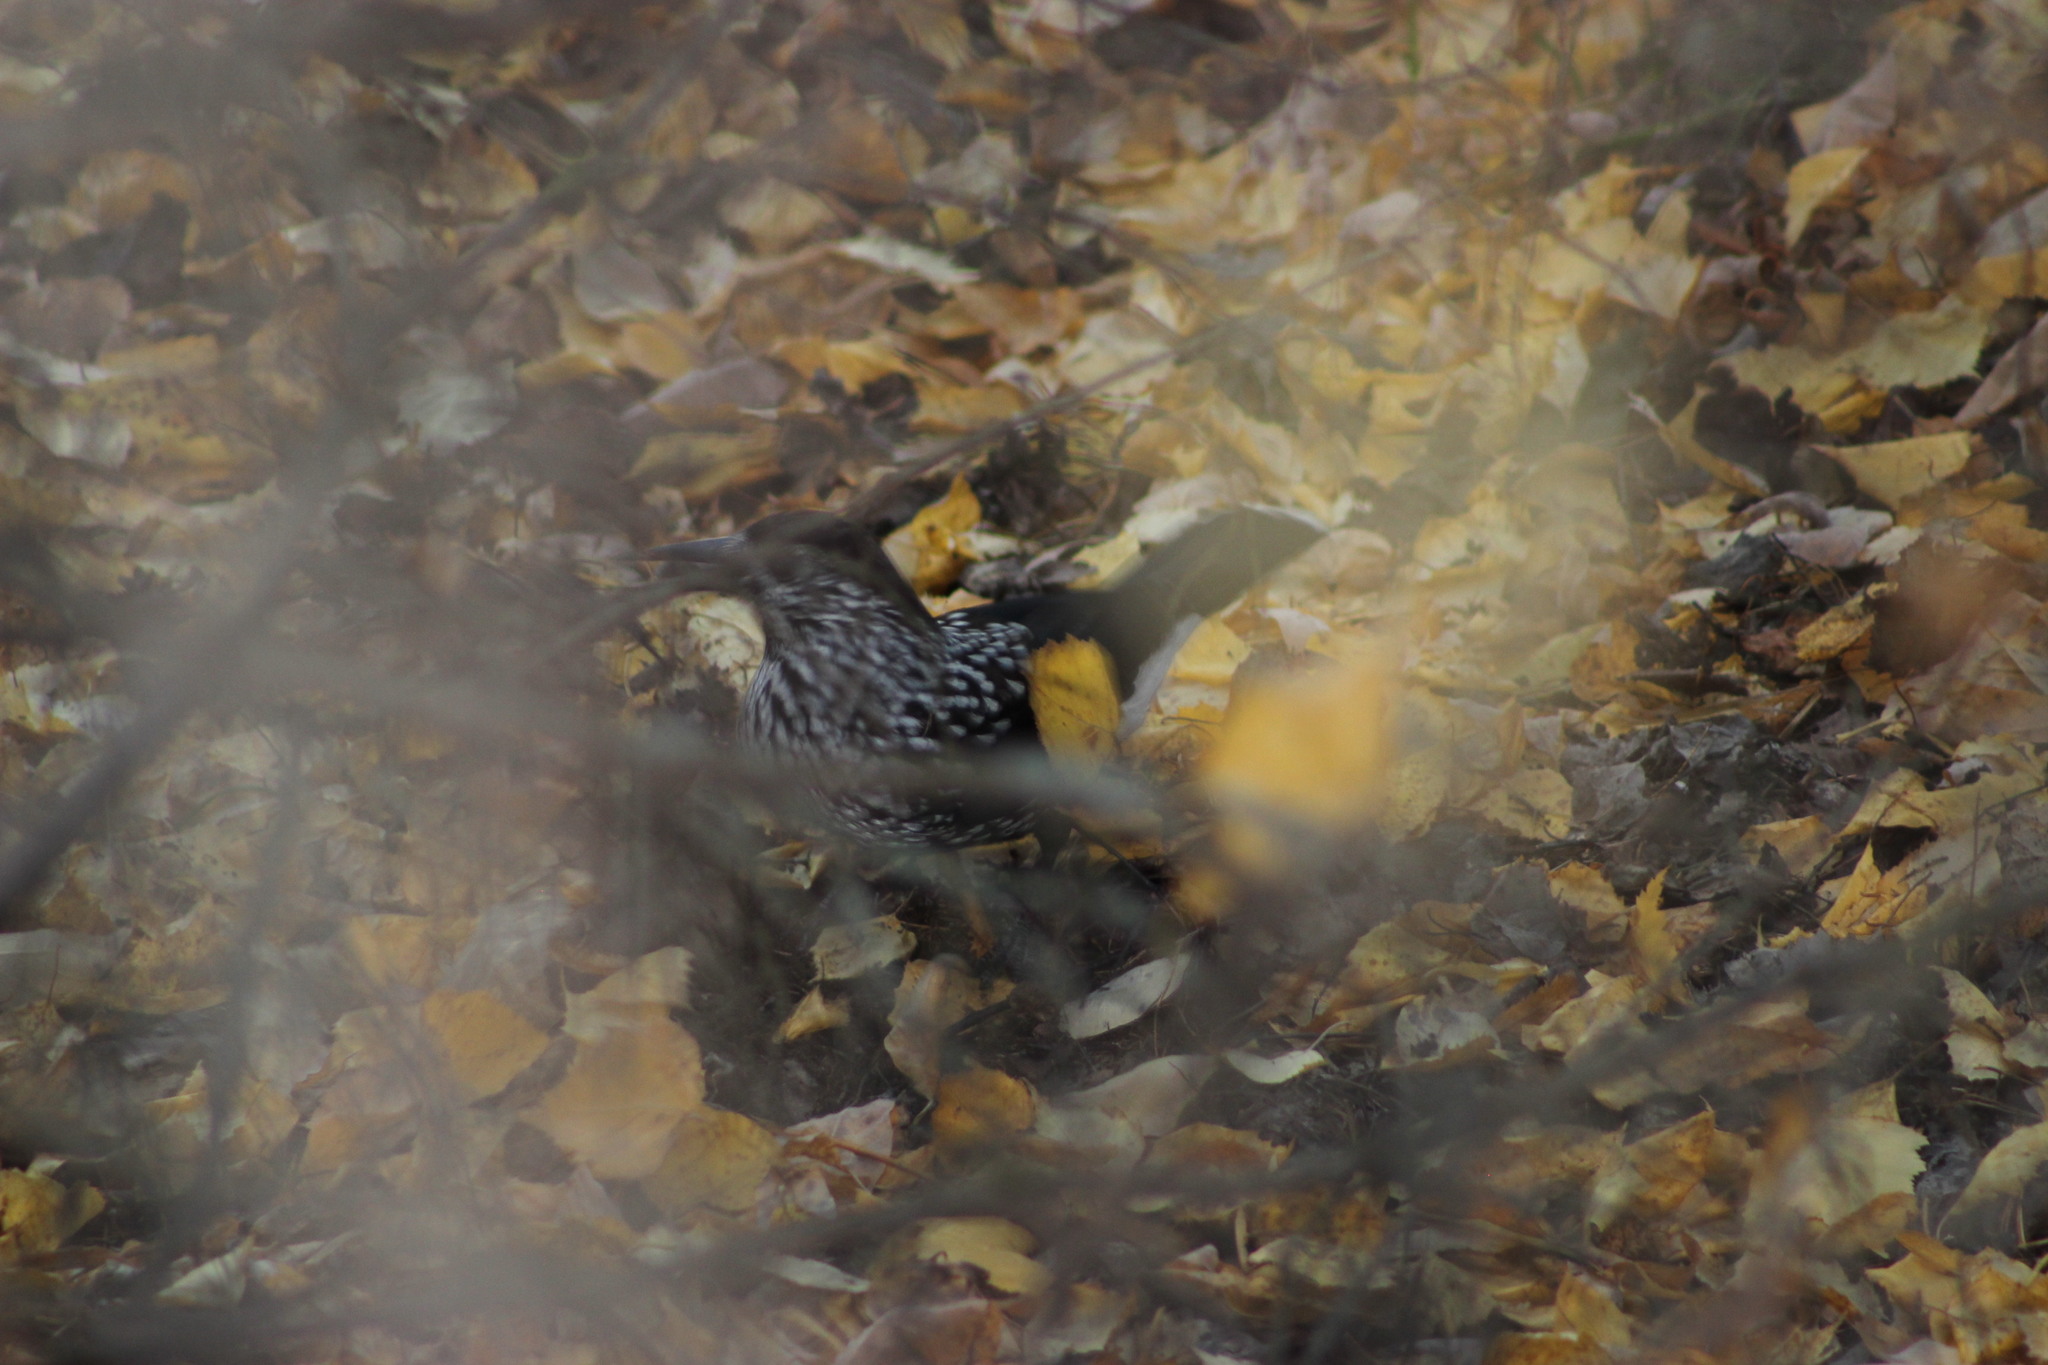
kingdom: Animalia
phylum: Chordata
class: Aves
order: Passeriformes
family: Corvidae
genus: Nucifraga
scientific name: Nucifraga caryocatactes
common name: Spotted nutcracker
